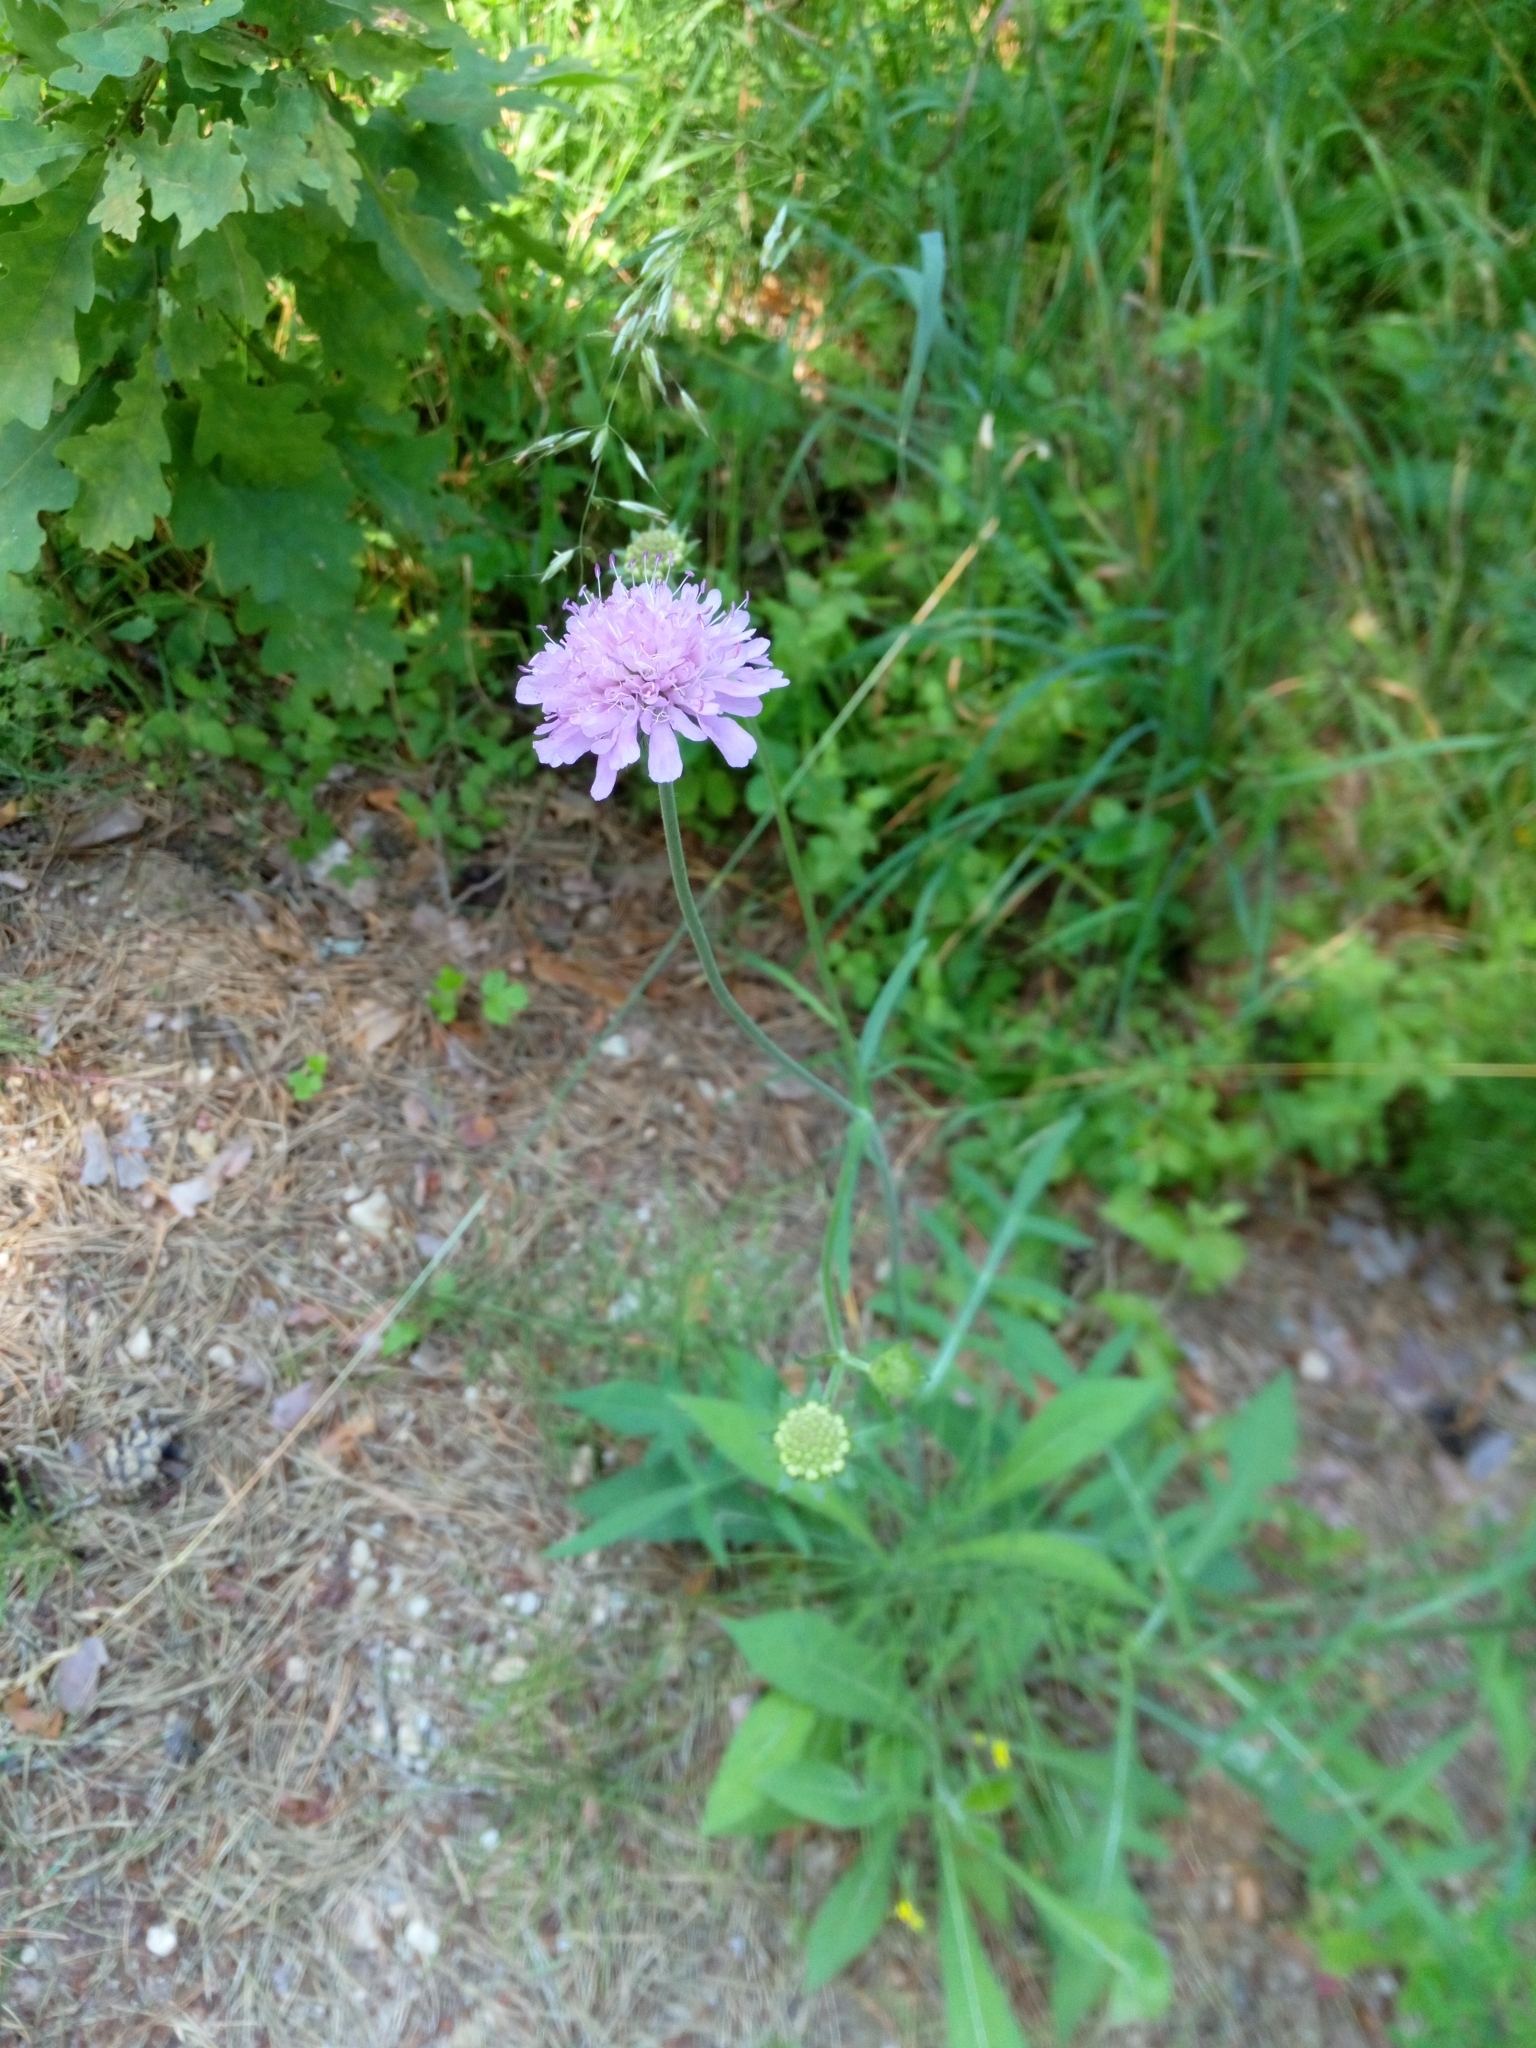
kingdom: Plantae
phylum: Tracheophyta
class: Magnoliopsida
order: Dipsacales
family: Caprifoliaceae
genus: Knautia
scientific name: Knautia arvensis
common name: Field scabiosa
